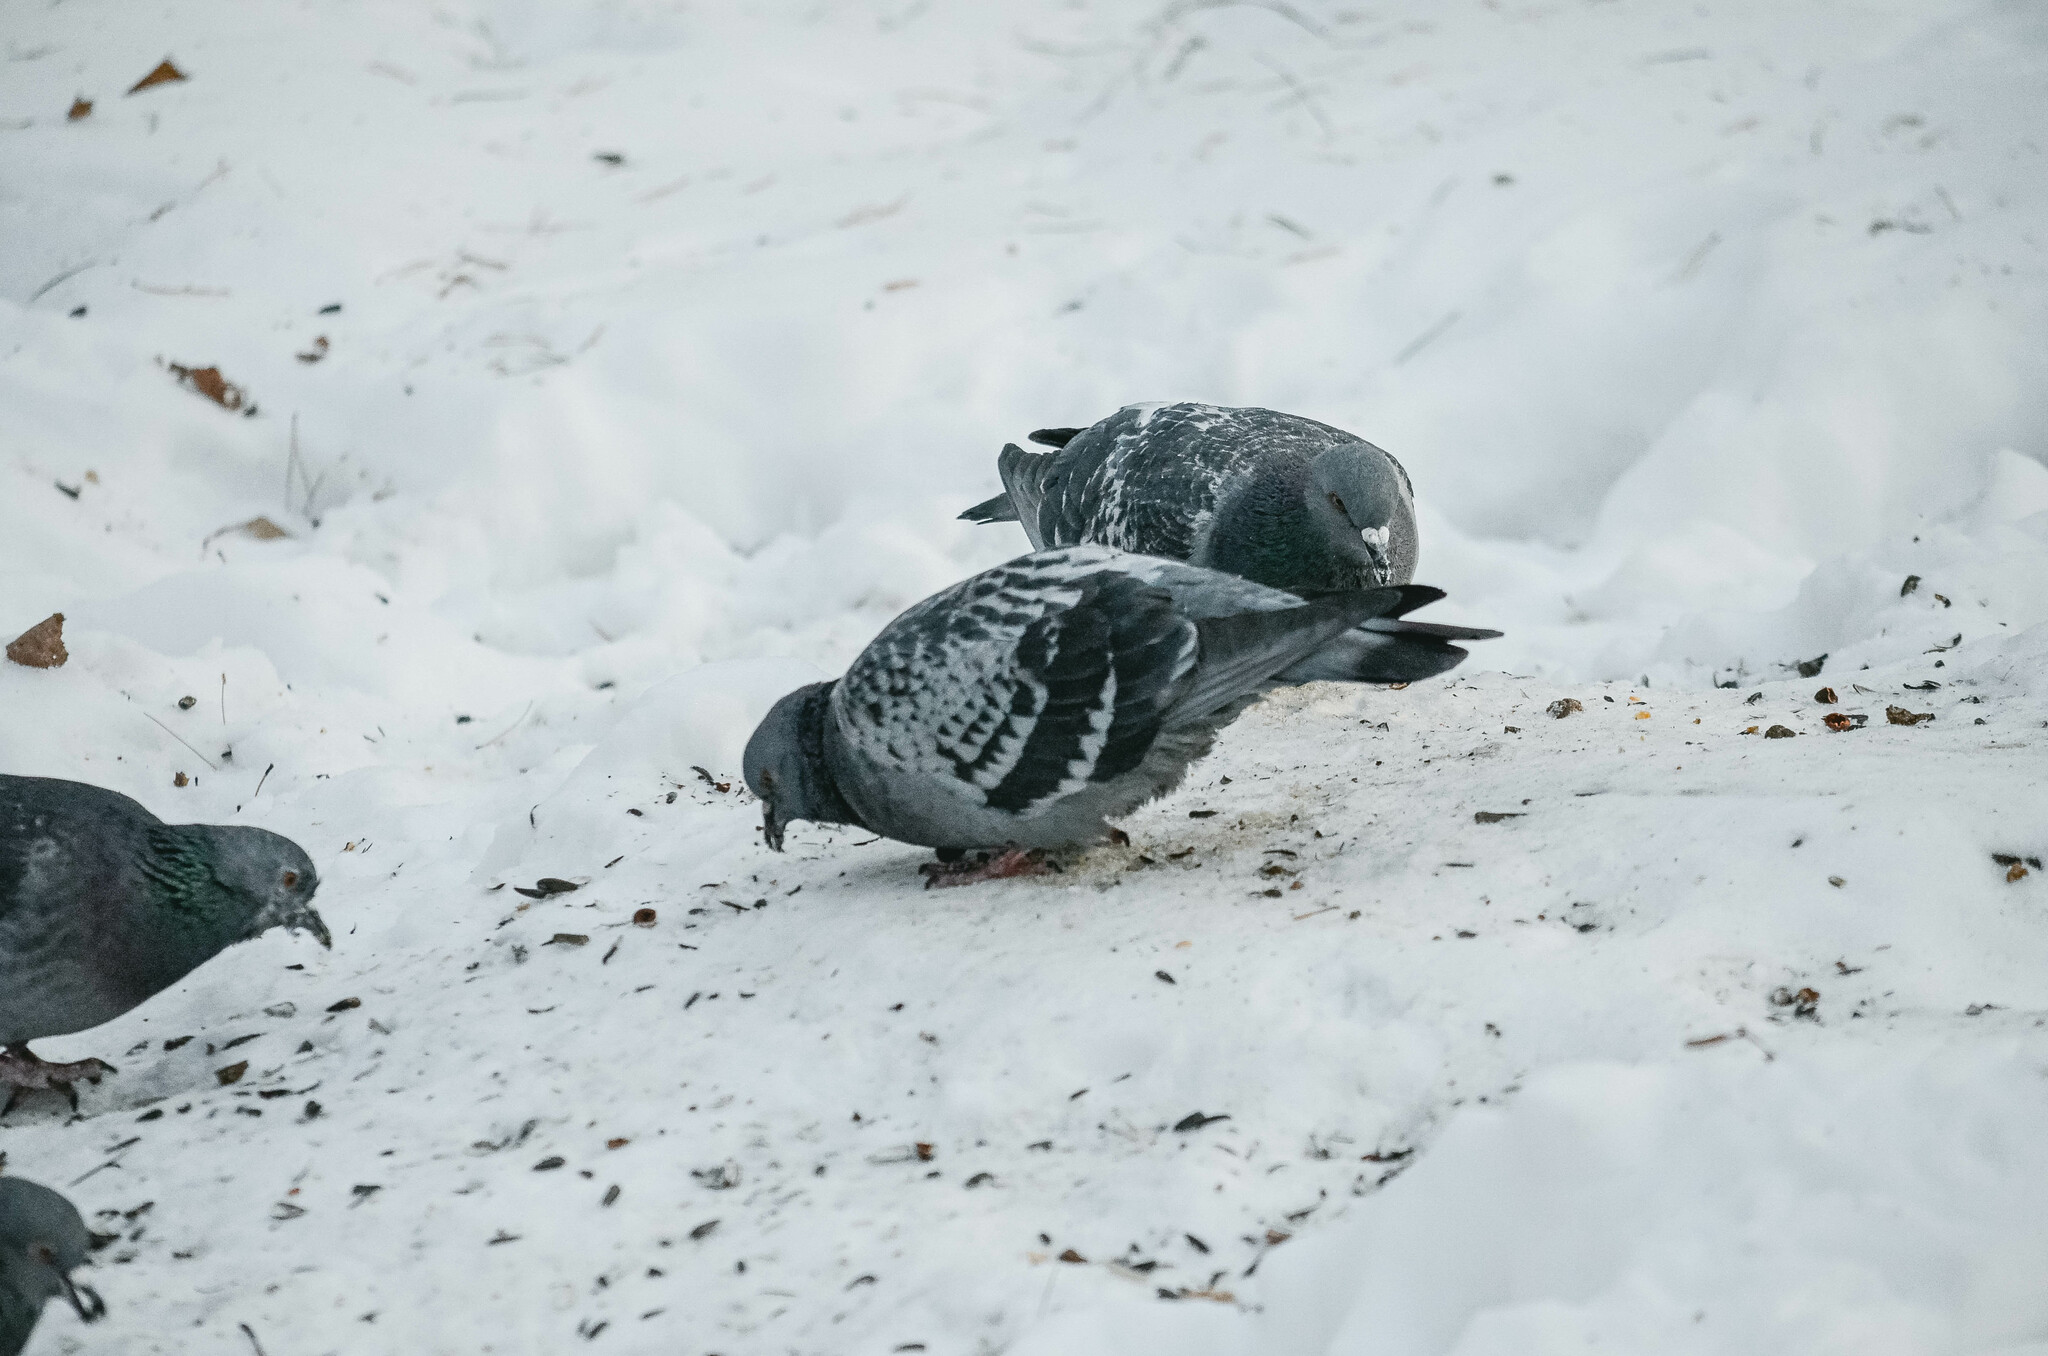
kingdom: Animalia
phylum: Chordata
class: Aves
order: Columbiformes
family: Columbidae
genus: Columba
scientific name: Columba livia
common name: Rock pigeon
